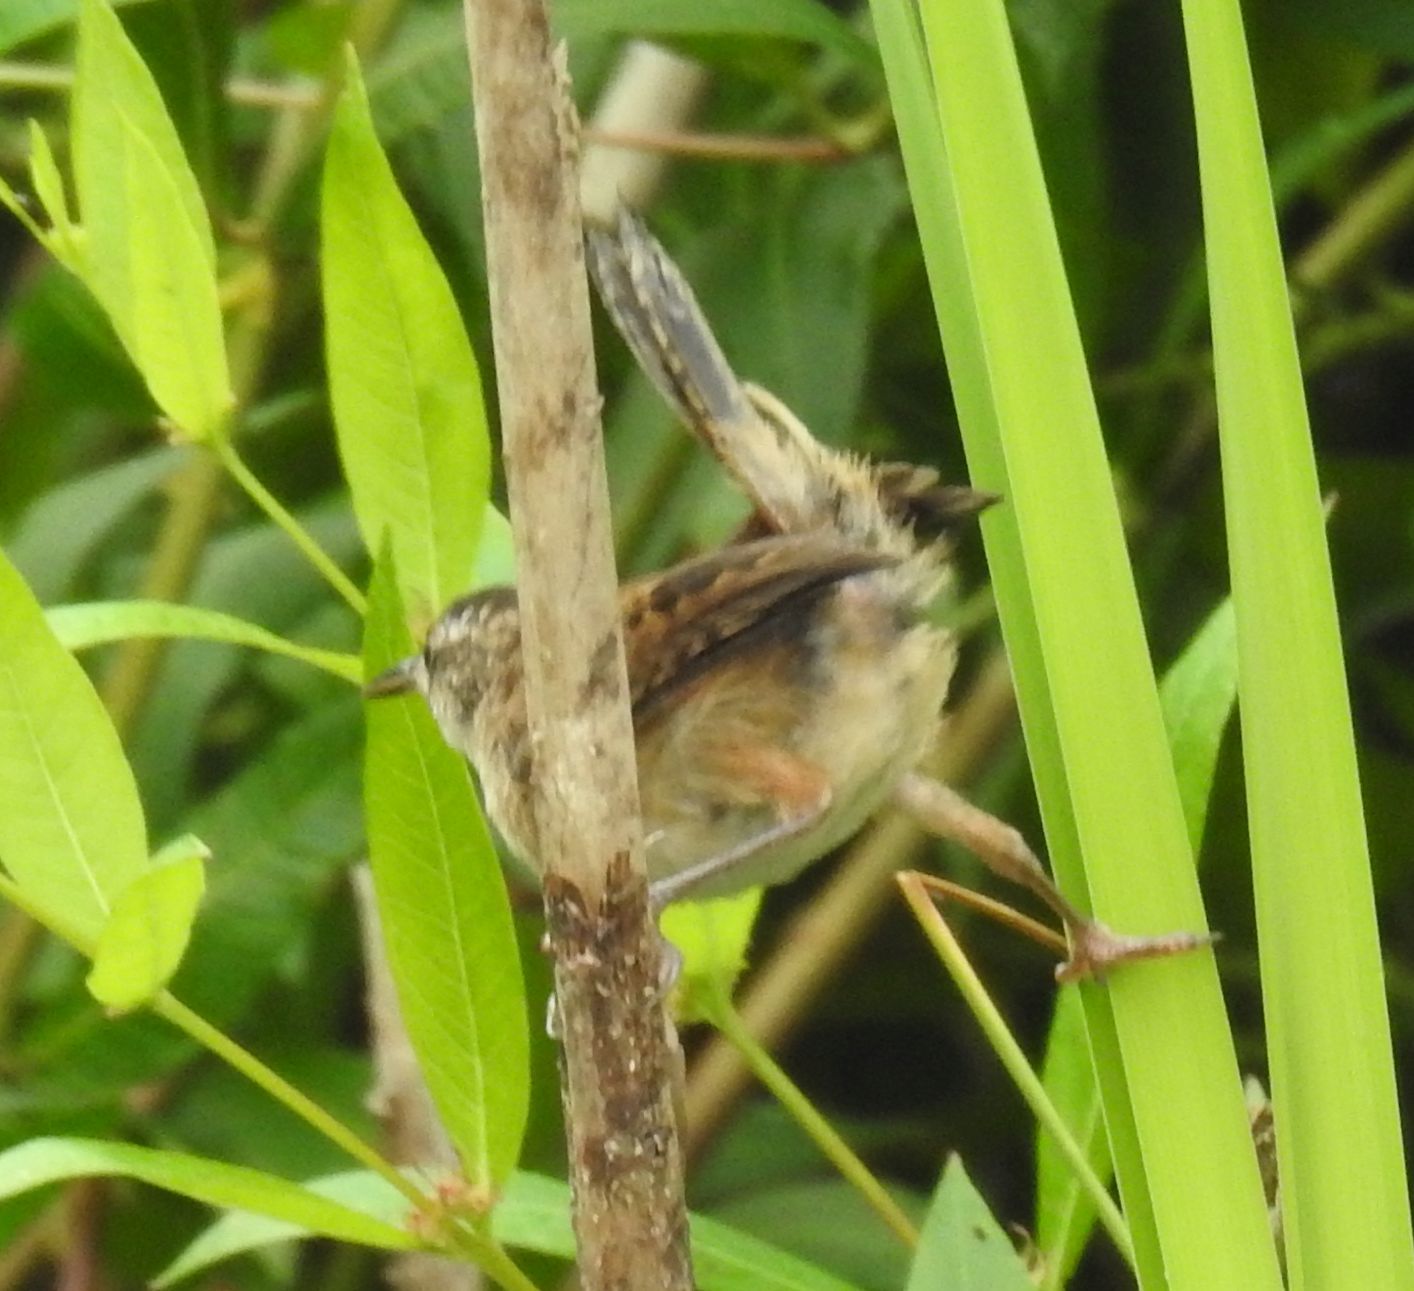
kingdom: Animalia
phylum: Chordata
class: Aves
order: Passeriformes
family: Troglodytidae
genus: Cistothorus
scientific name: Cistothorus palustris
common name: Marsh wren
